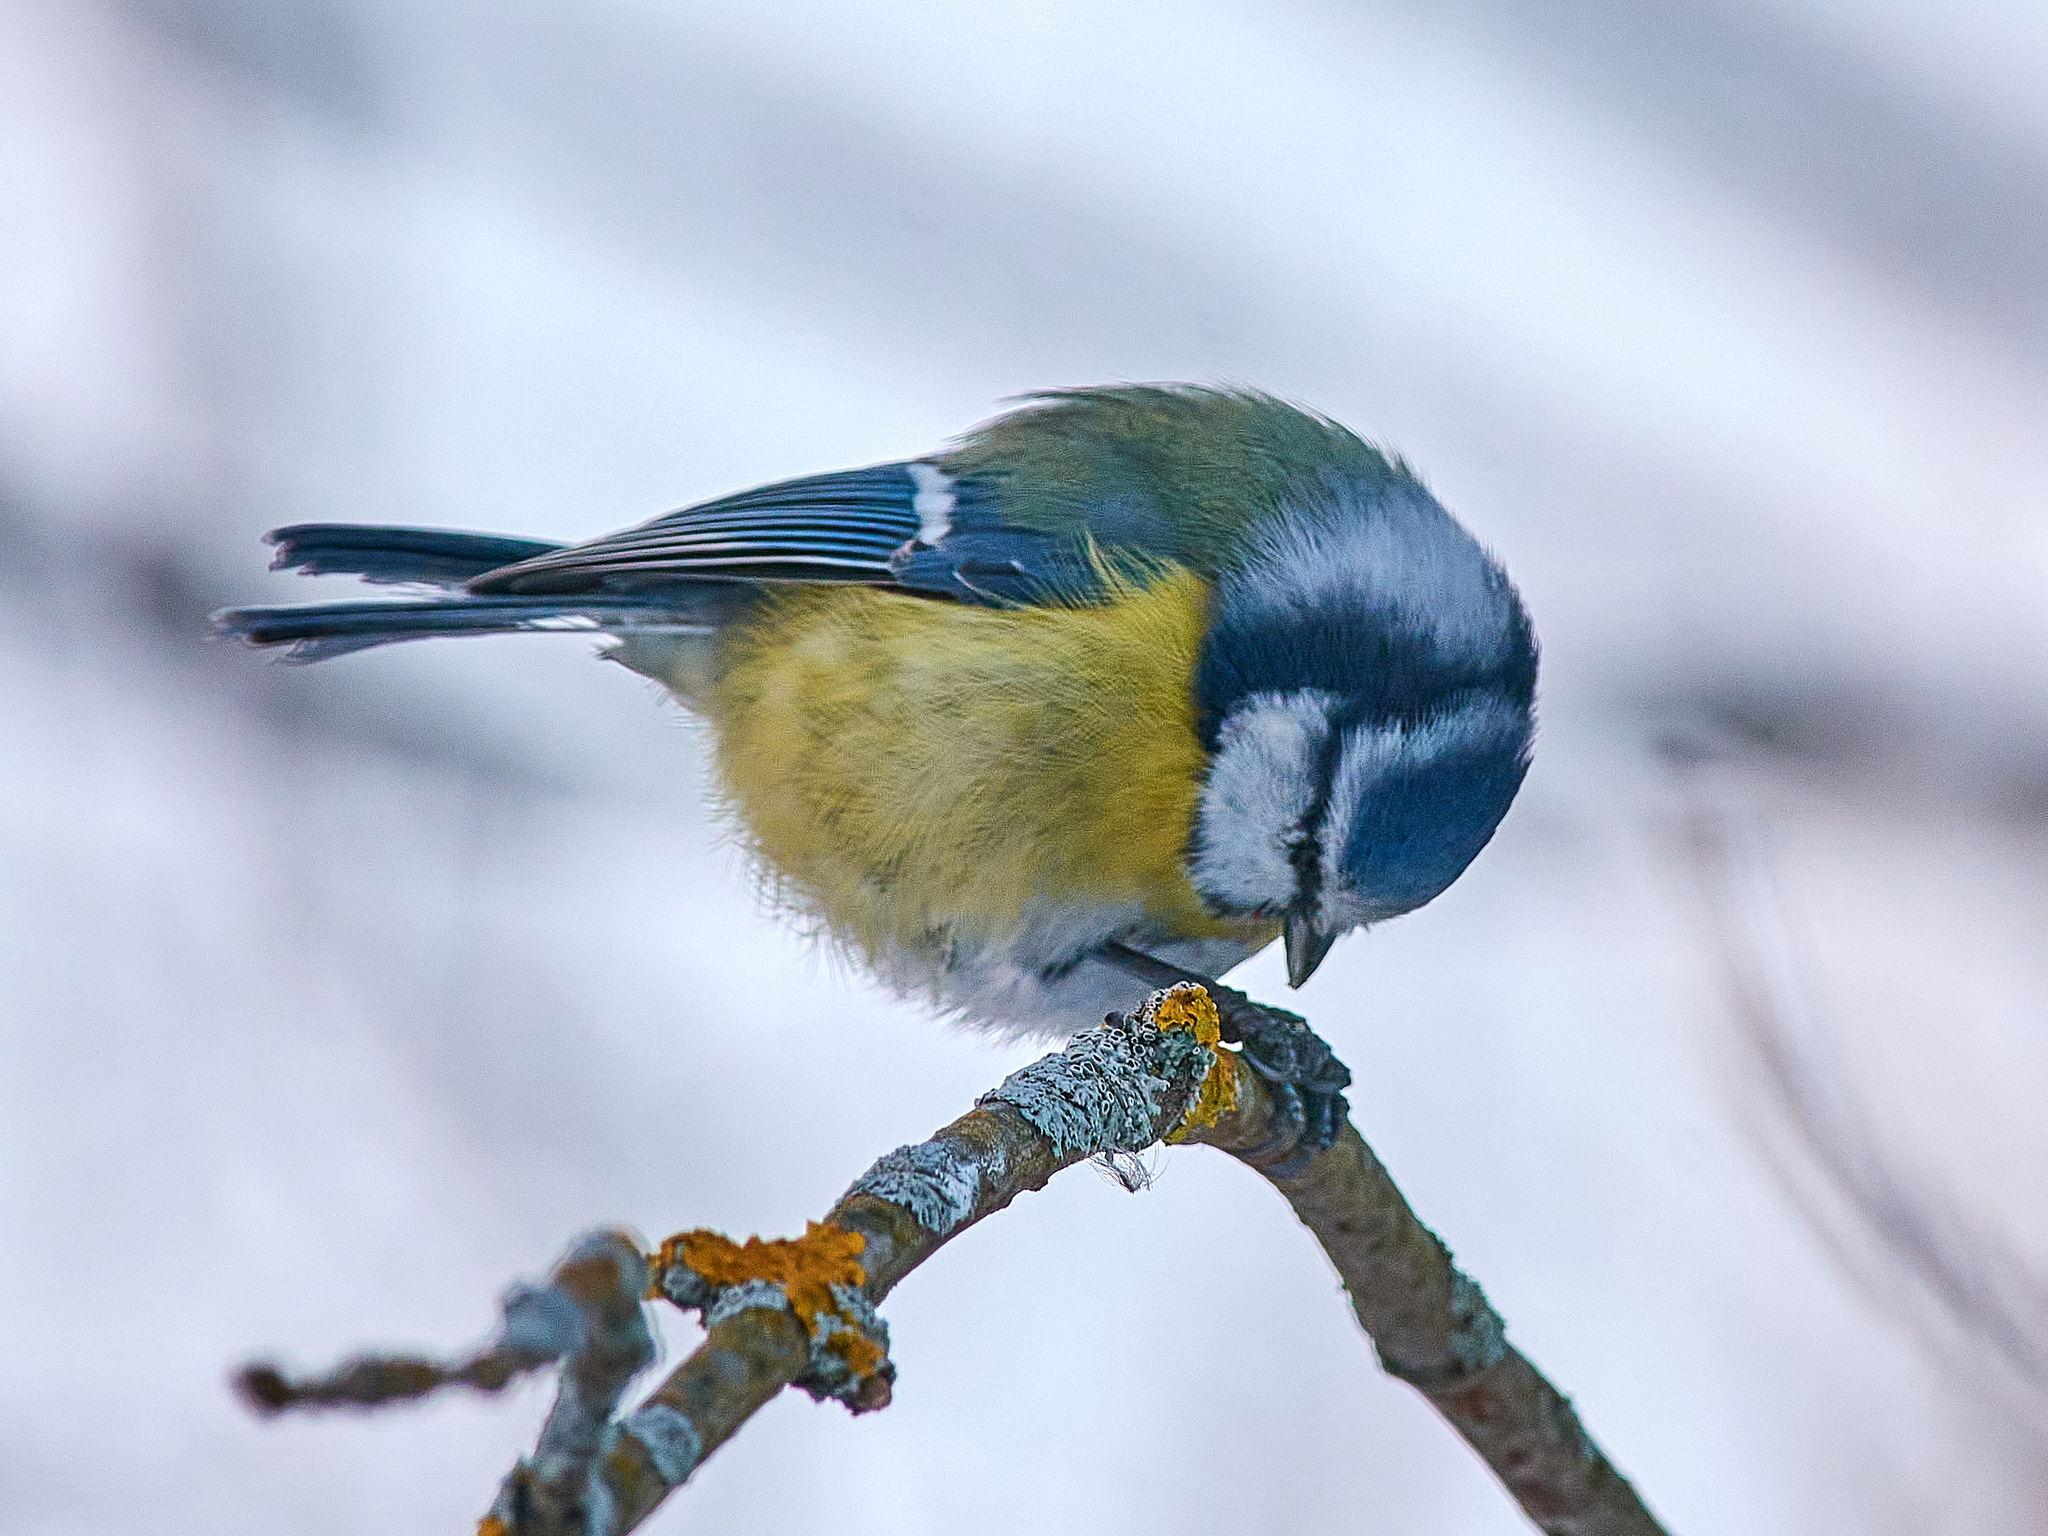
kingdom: Animalia
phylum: Chordata
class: Aves
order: Passeriformes
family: Paridae
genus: Cyanistes
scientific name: Cyanistes caeruleus
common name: Eurasian blue tit
